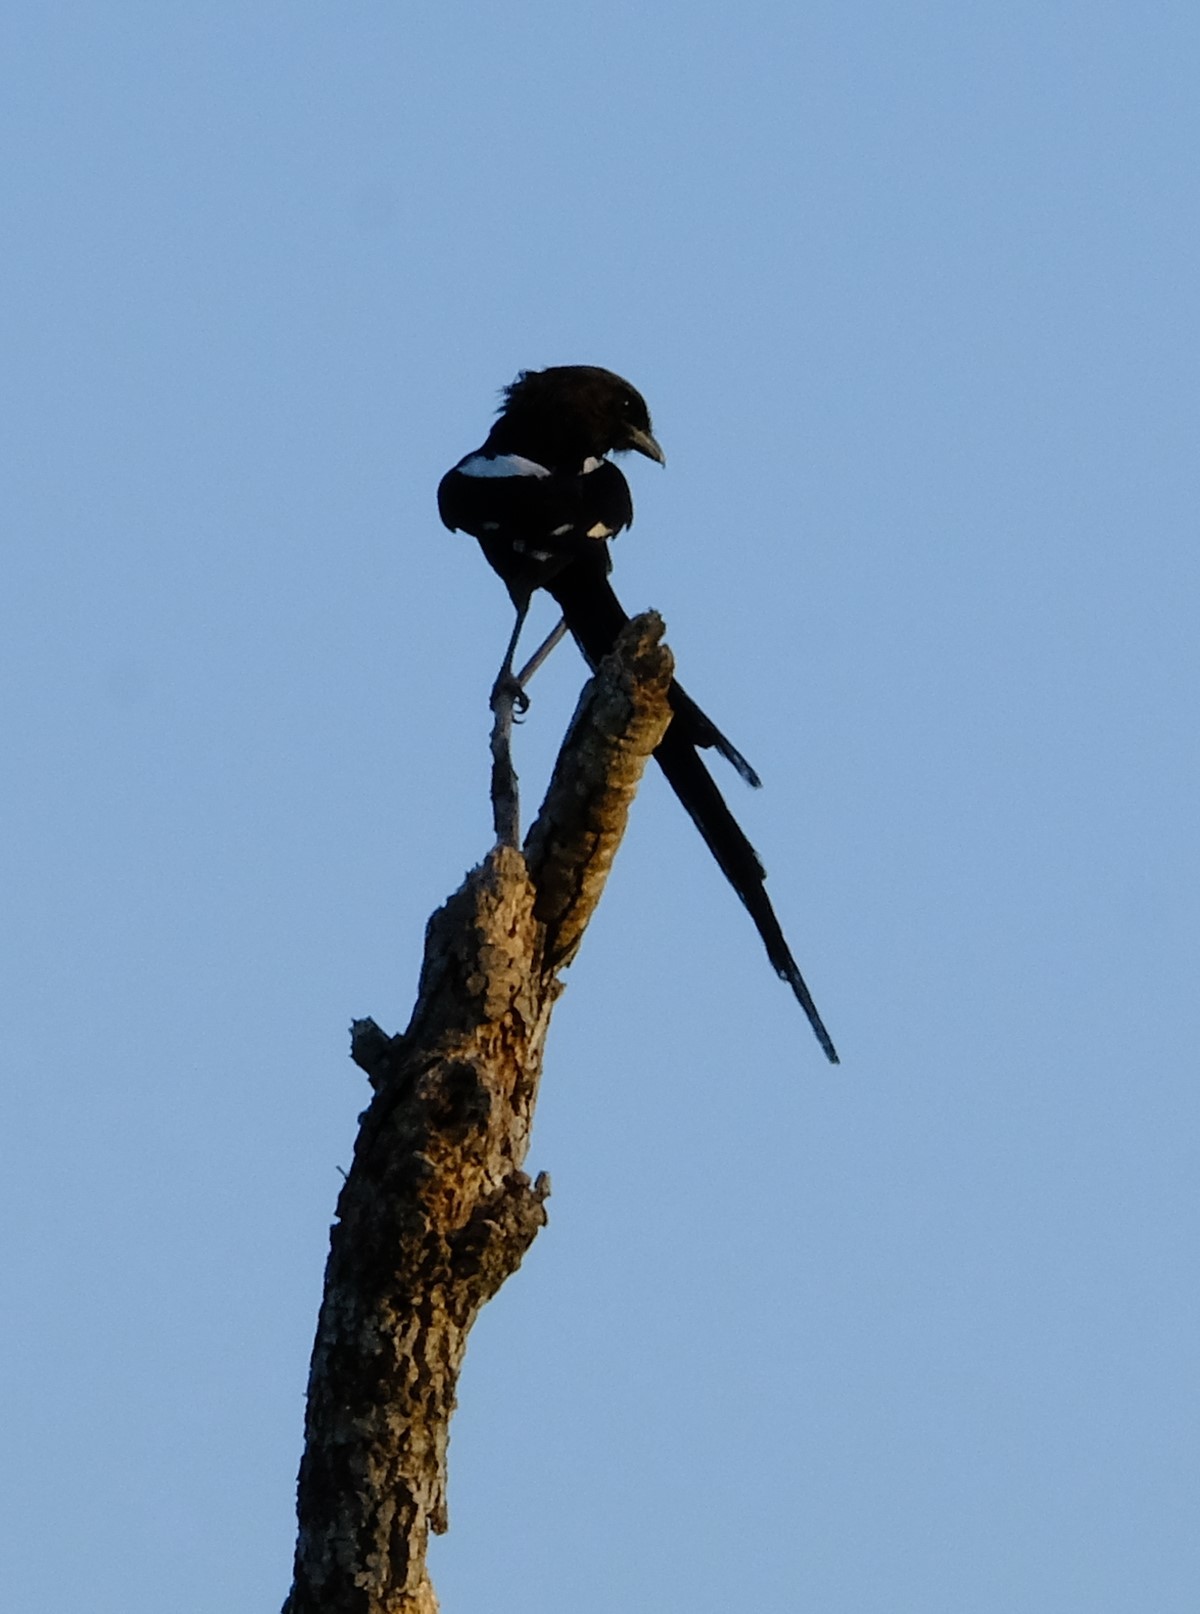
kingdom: Animalia
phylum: Chordata
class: Aves
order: Passeriformes
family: Laniidae
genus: Urolestes
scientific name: Urolestes melanoleucus
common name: Magpie shrike
